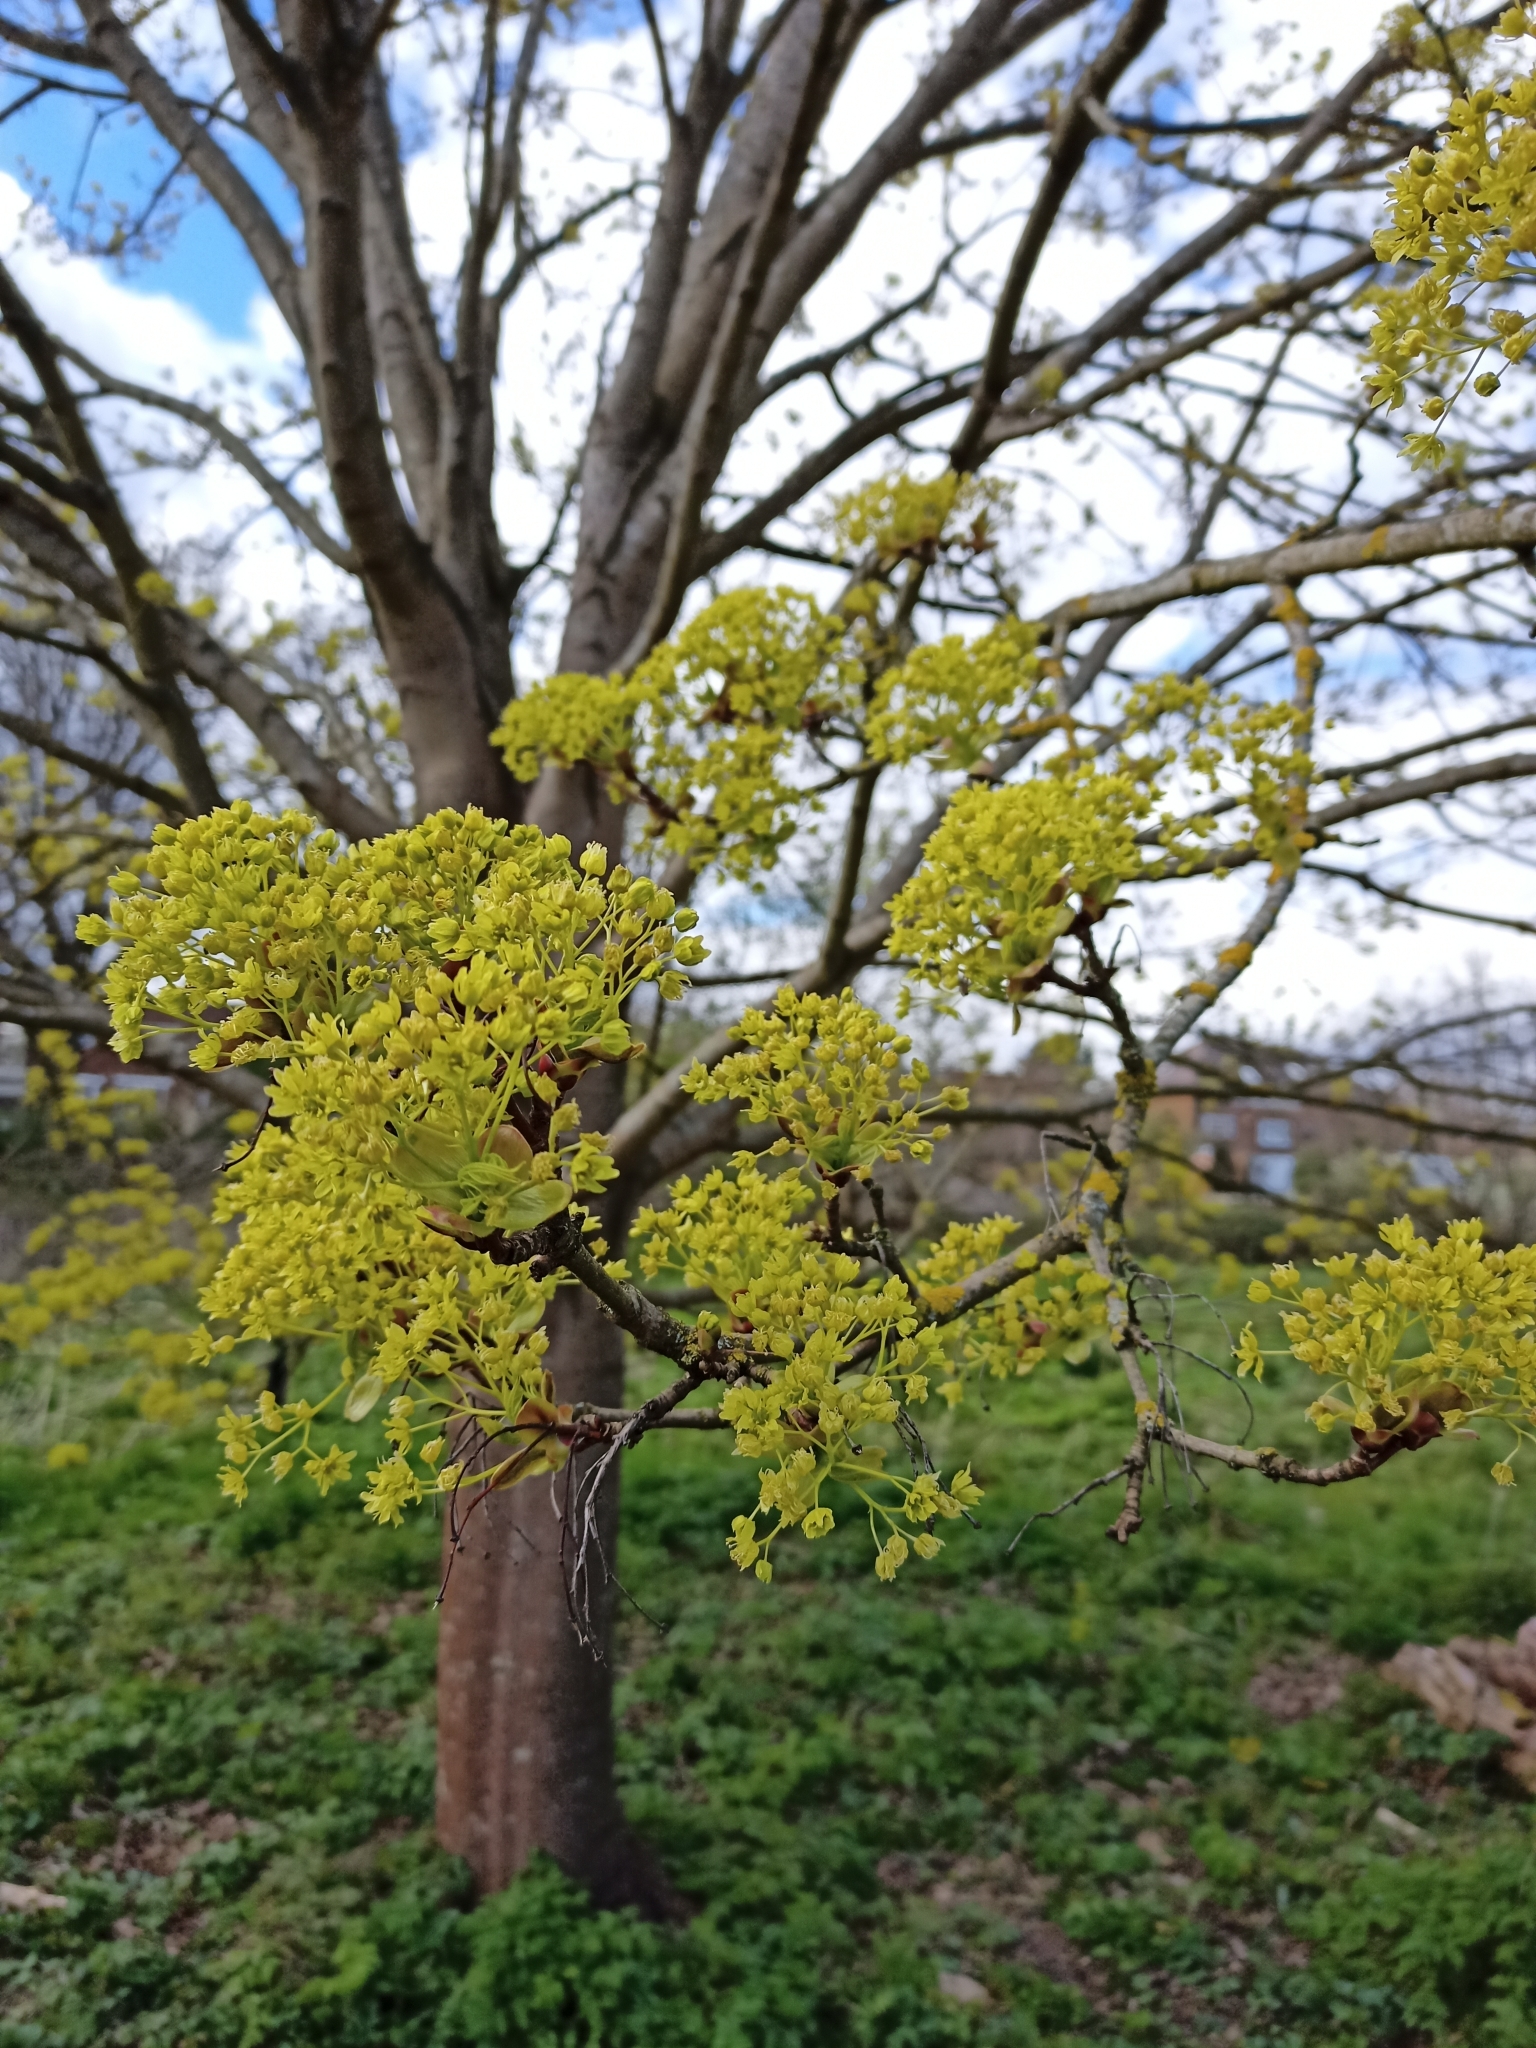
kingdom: Plantae
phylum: Tracheophyta
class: Magnoliopsida
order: Sapindales
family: Sapindaceae
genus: Acer
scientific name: Acer platanoides
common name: Norway maple
